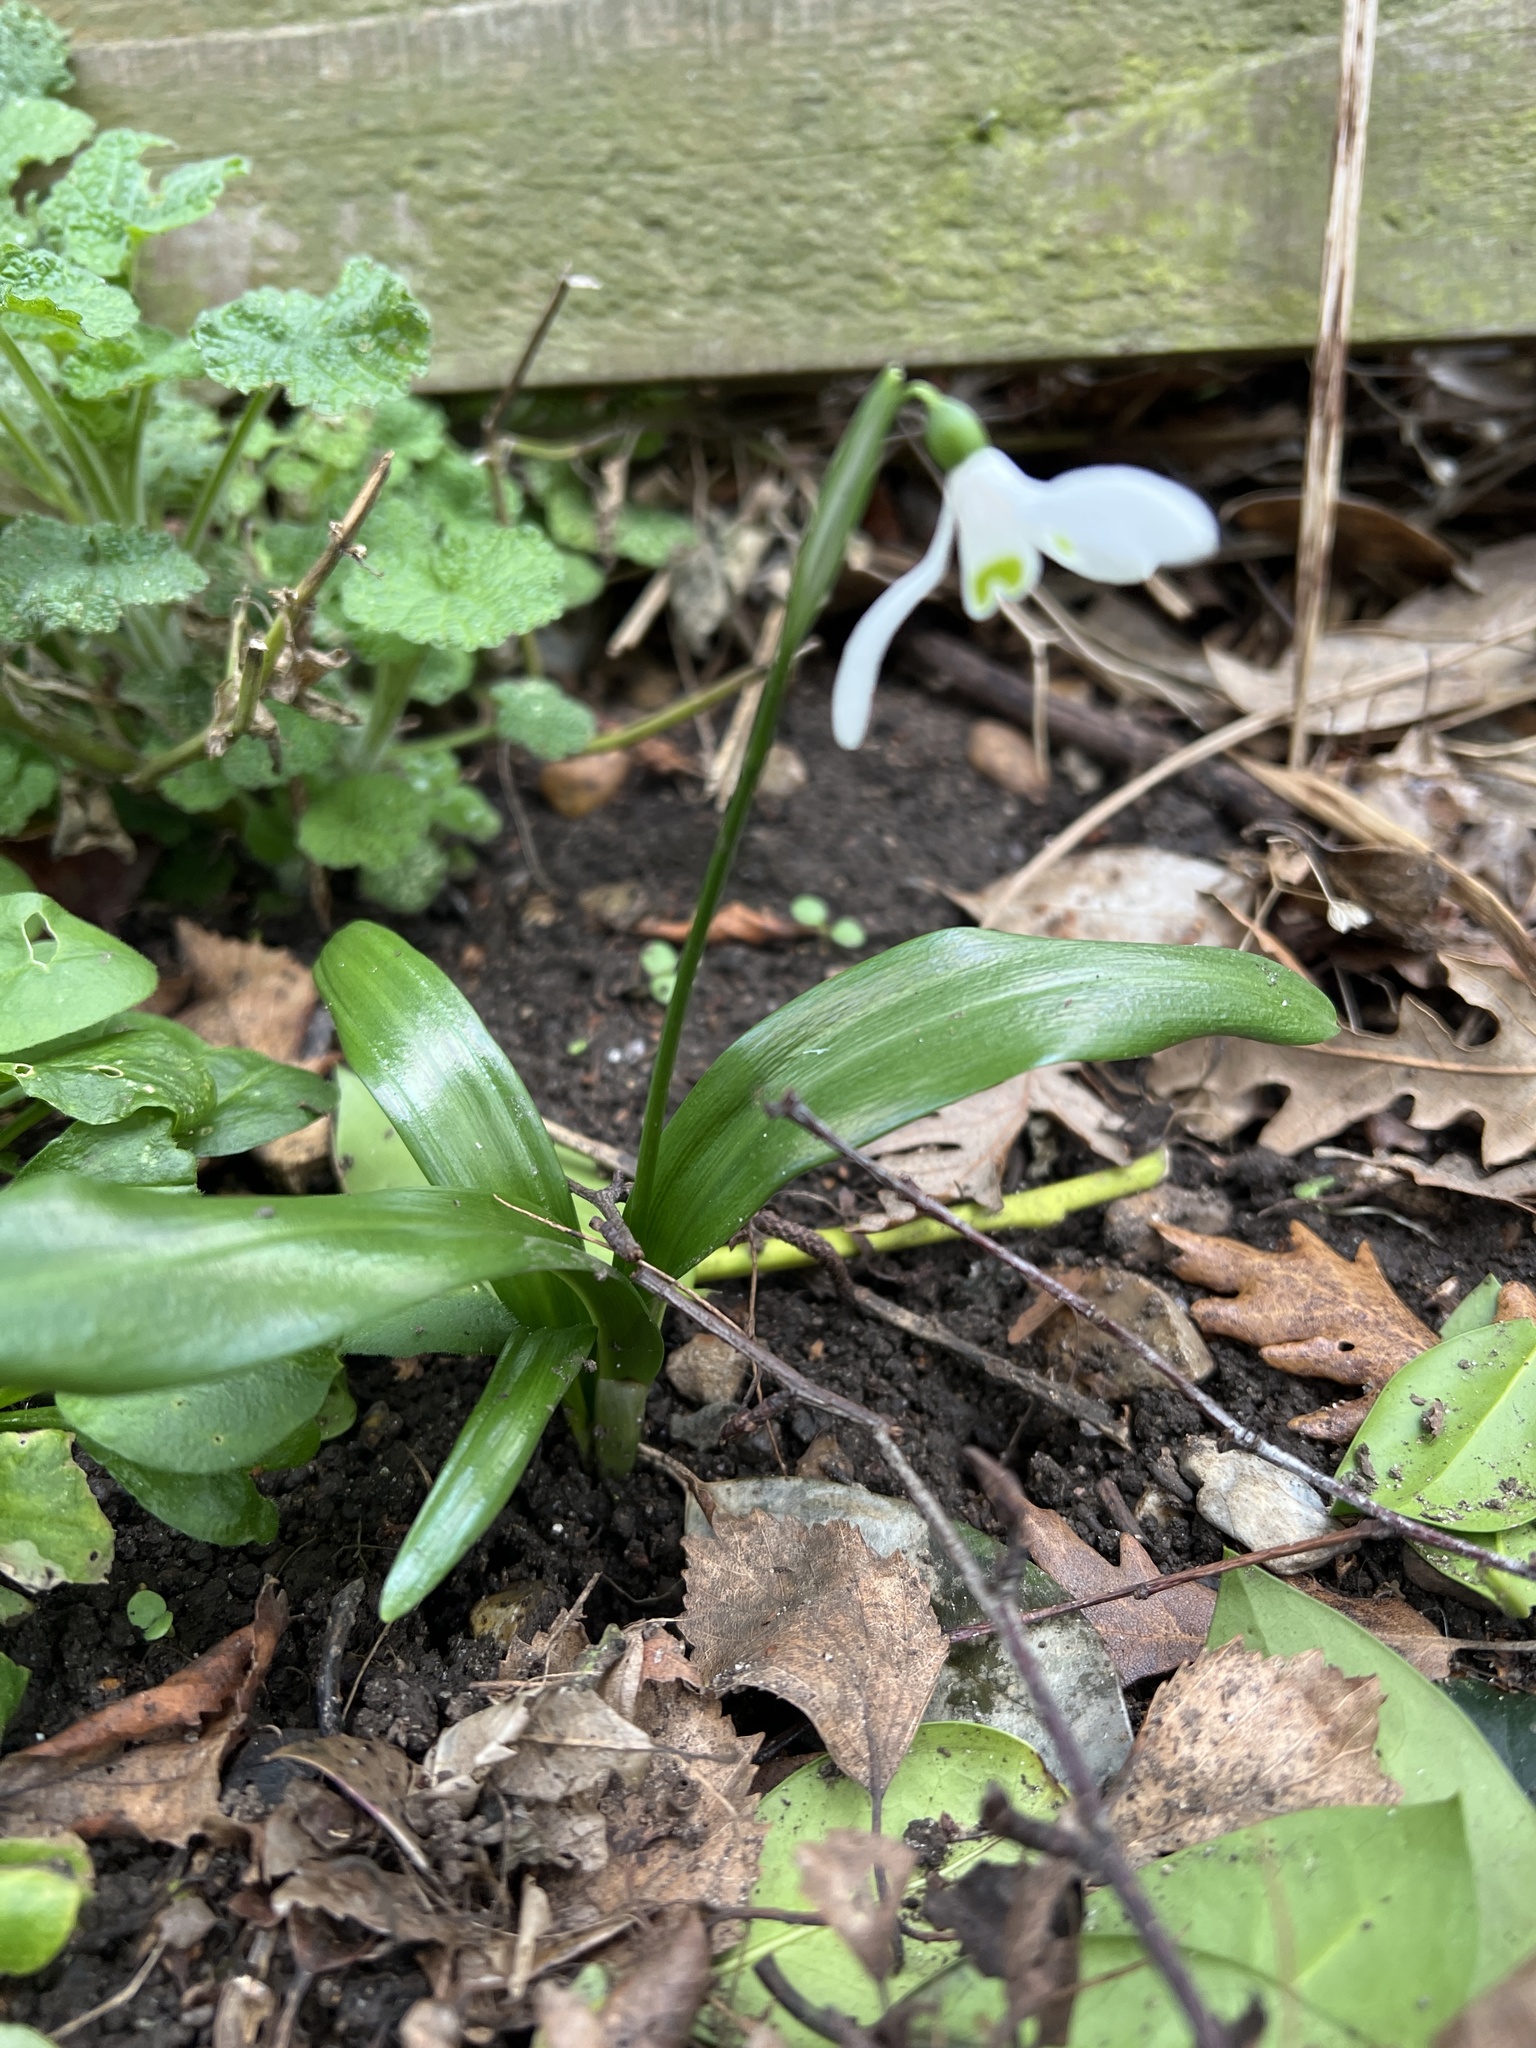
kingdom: Plantae
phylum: Tracheophyta
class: Liliopsida
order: Asparagales
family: Amaryllidaceae
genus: Galanthus
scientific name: Galanthus woronowii
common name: Green snowdrop
